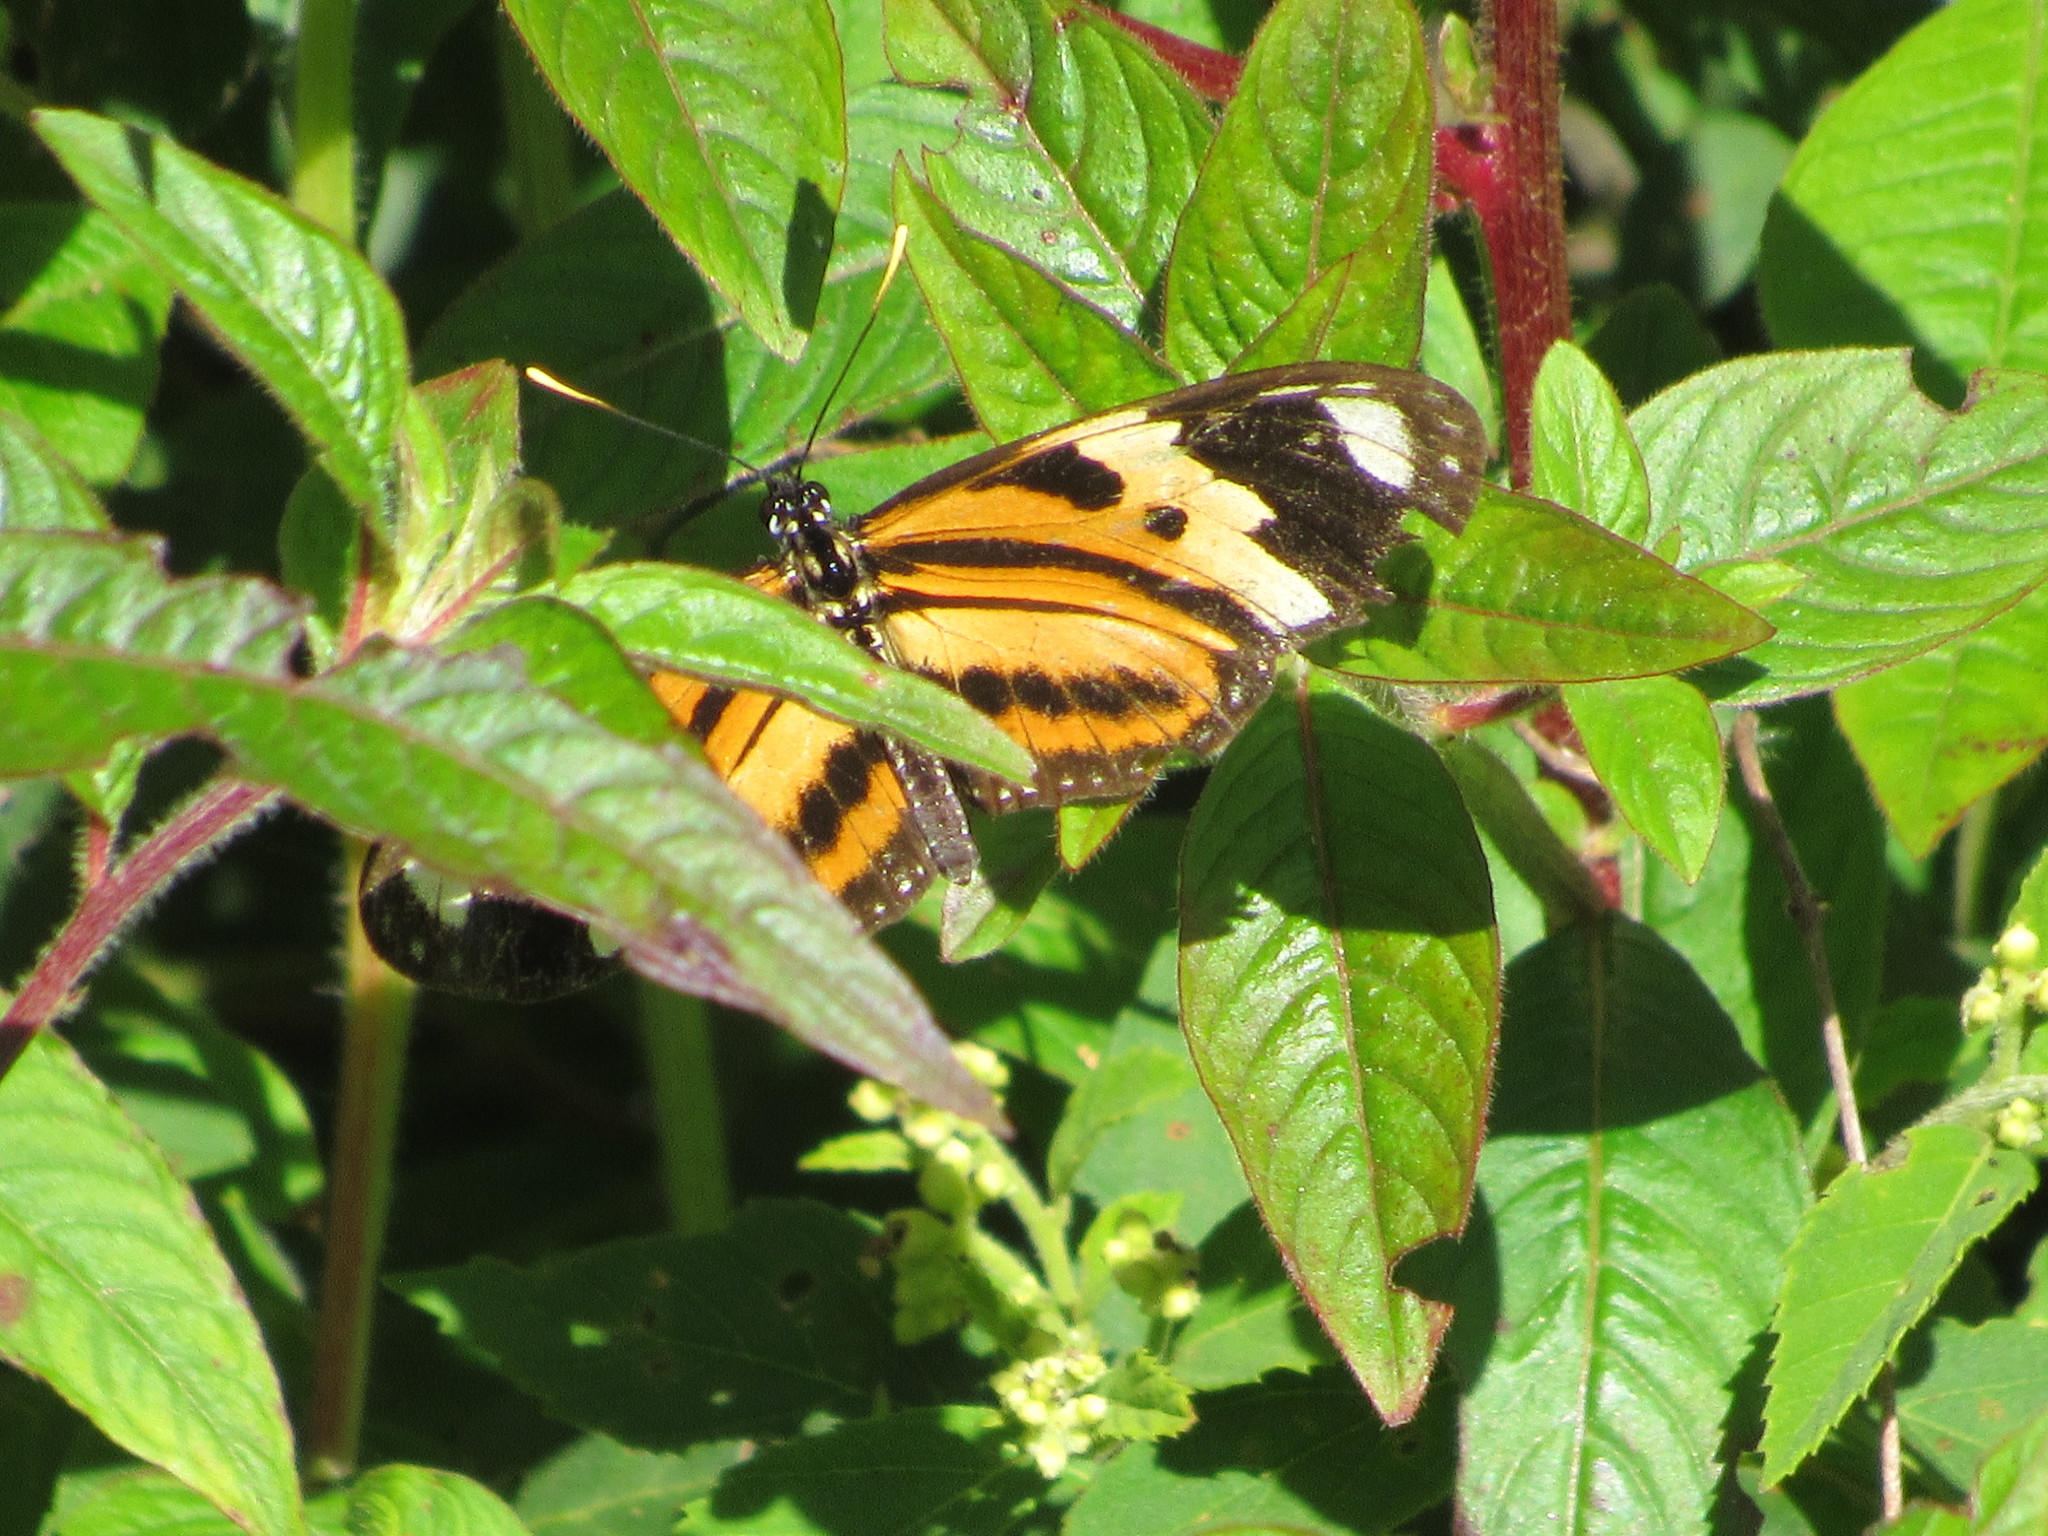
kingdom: Animalia
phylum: Arthropoda
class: Insecta
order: Lepidoptera
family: Nymphalidae
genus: Eueides
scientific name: Eueides isabella
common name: Isabella's longwing
